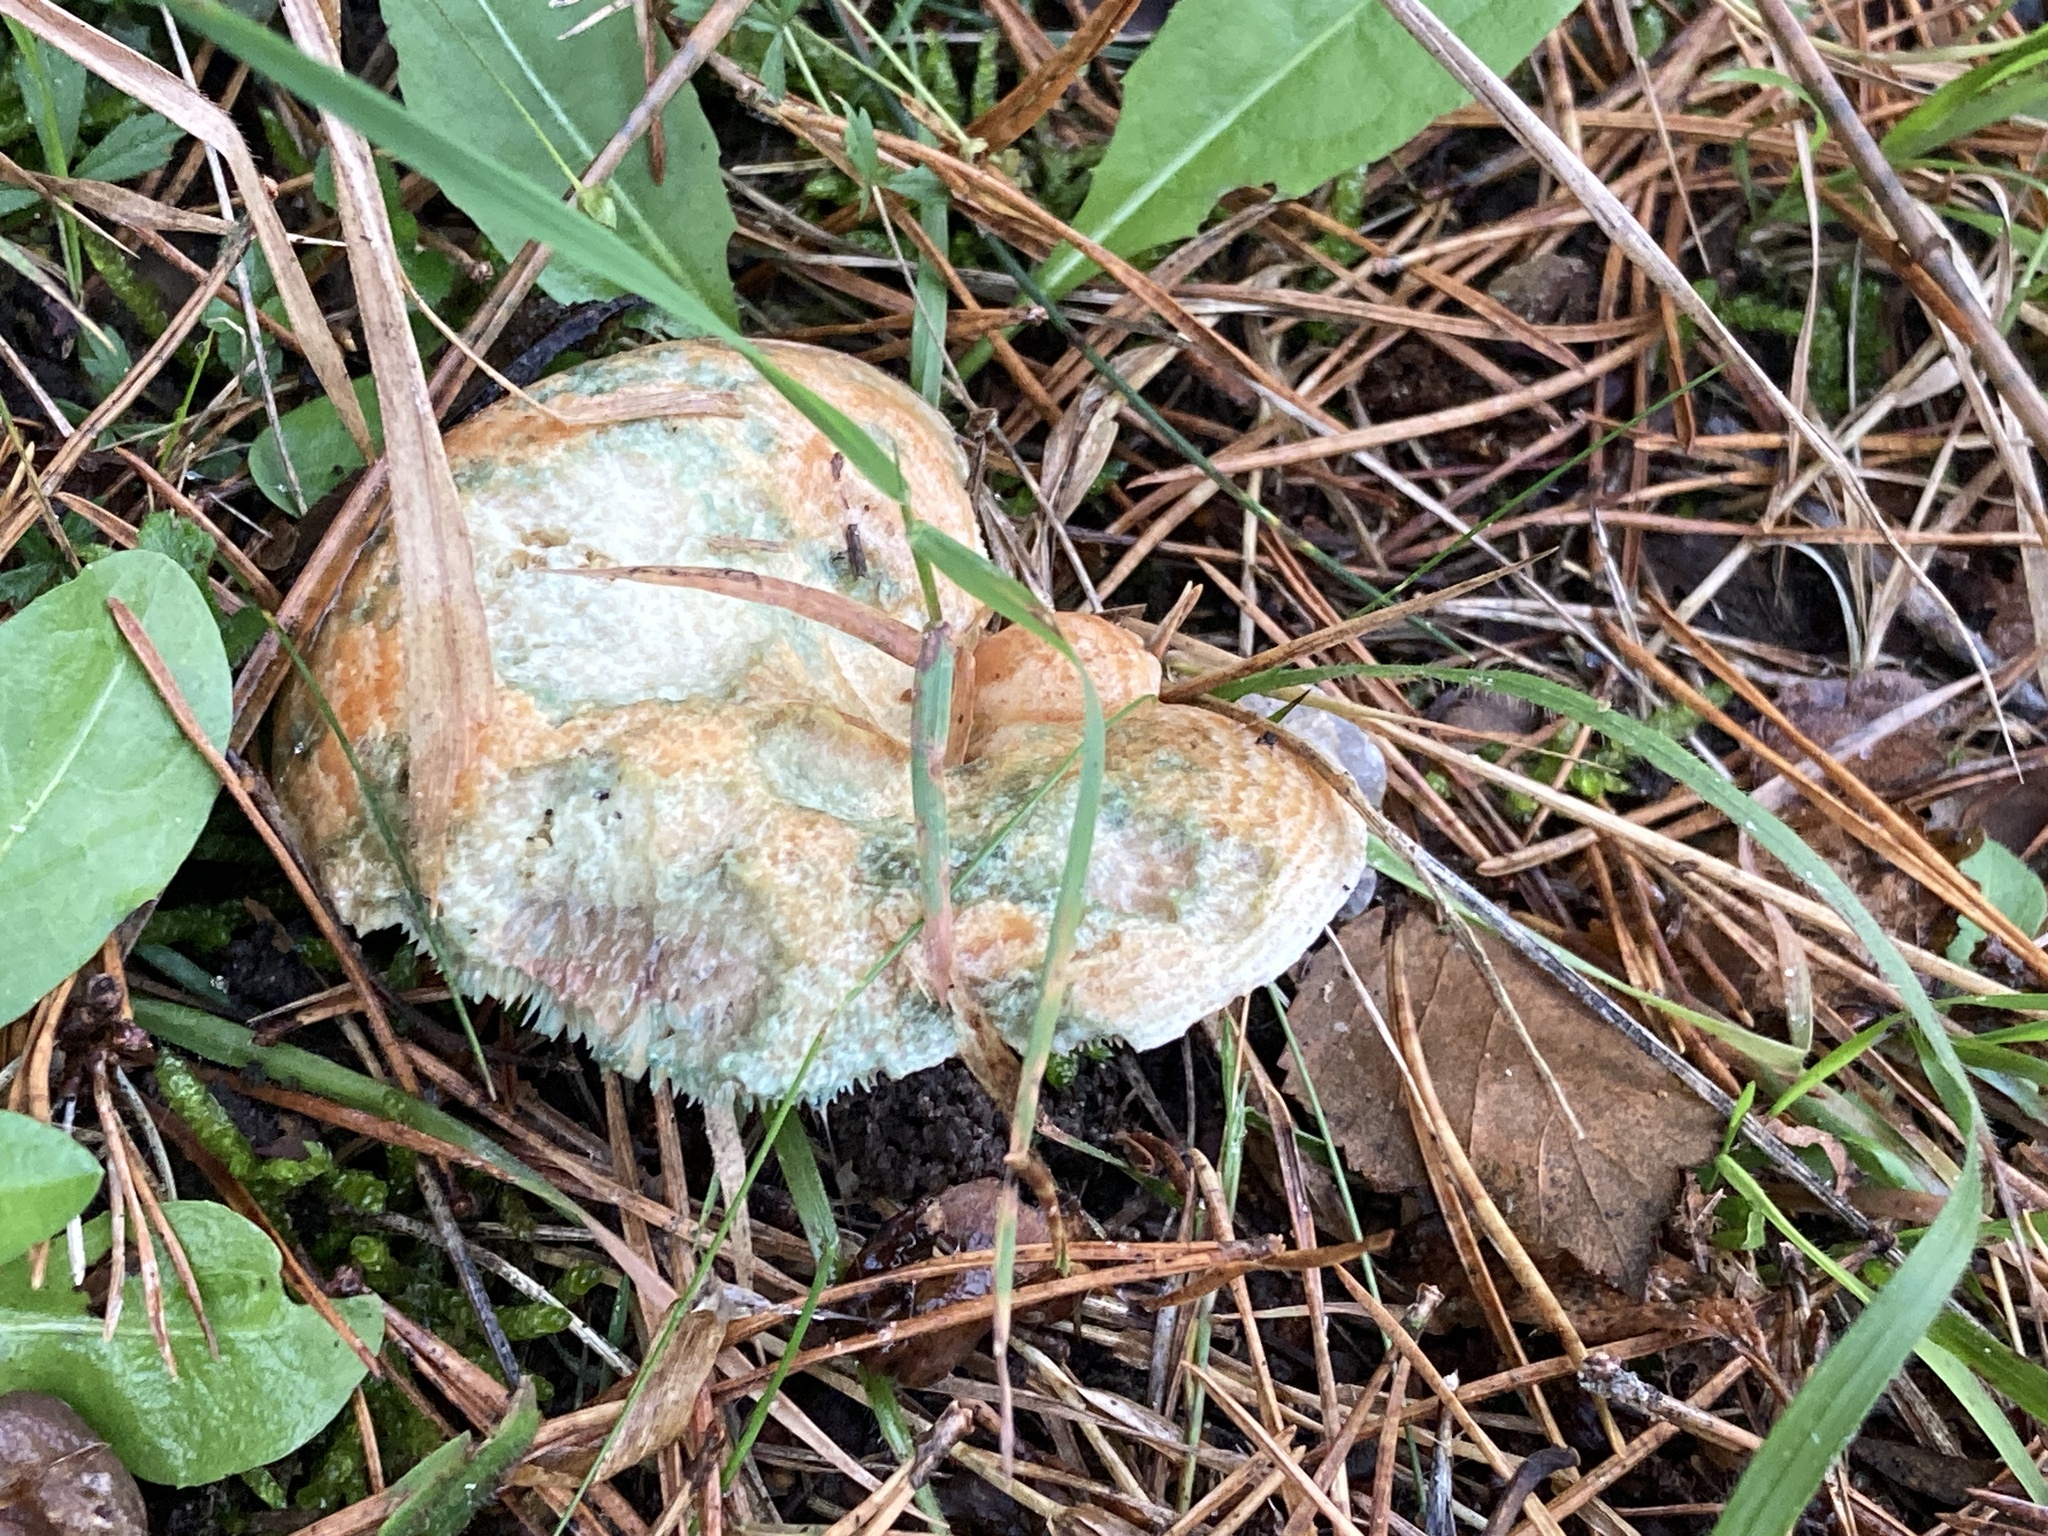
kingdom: Fungi
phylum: Basidiomycota
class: Agaricomycetes
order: Russulales
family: Russulaceae
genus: Lactarius
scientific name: Lactarius deliciosus
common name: Saffron milk-cap
